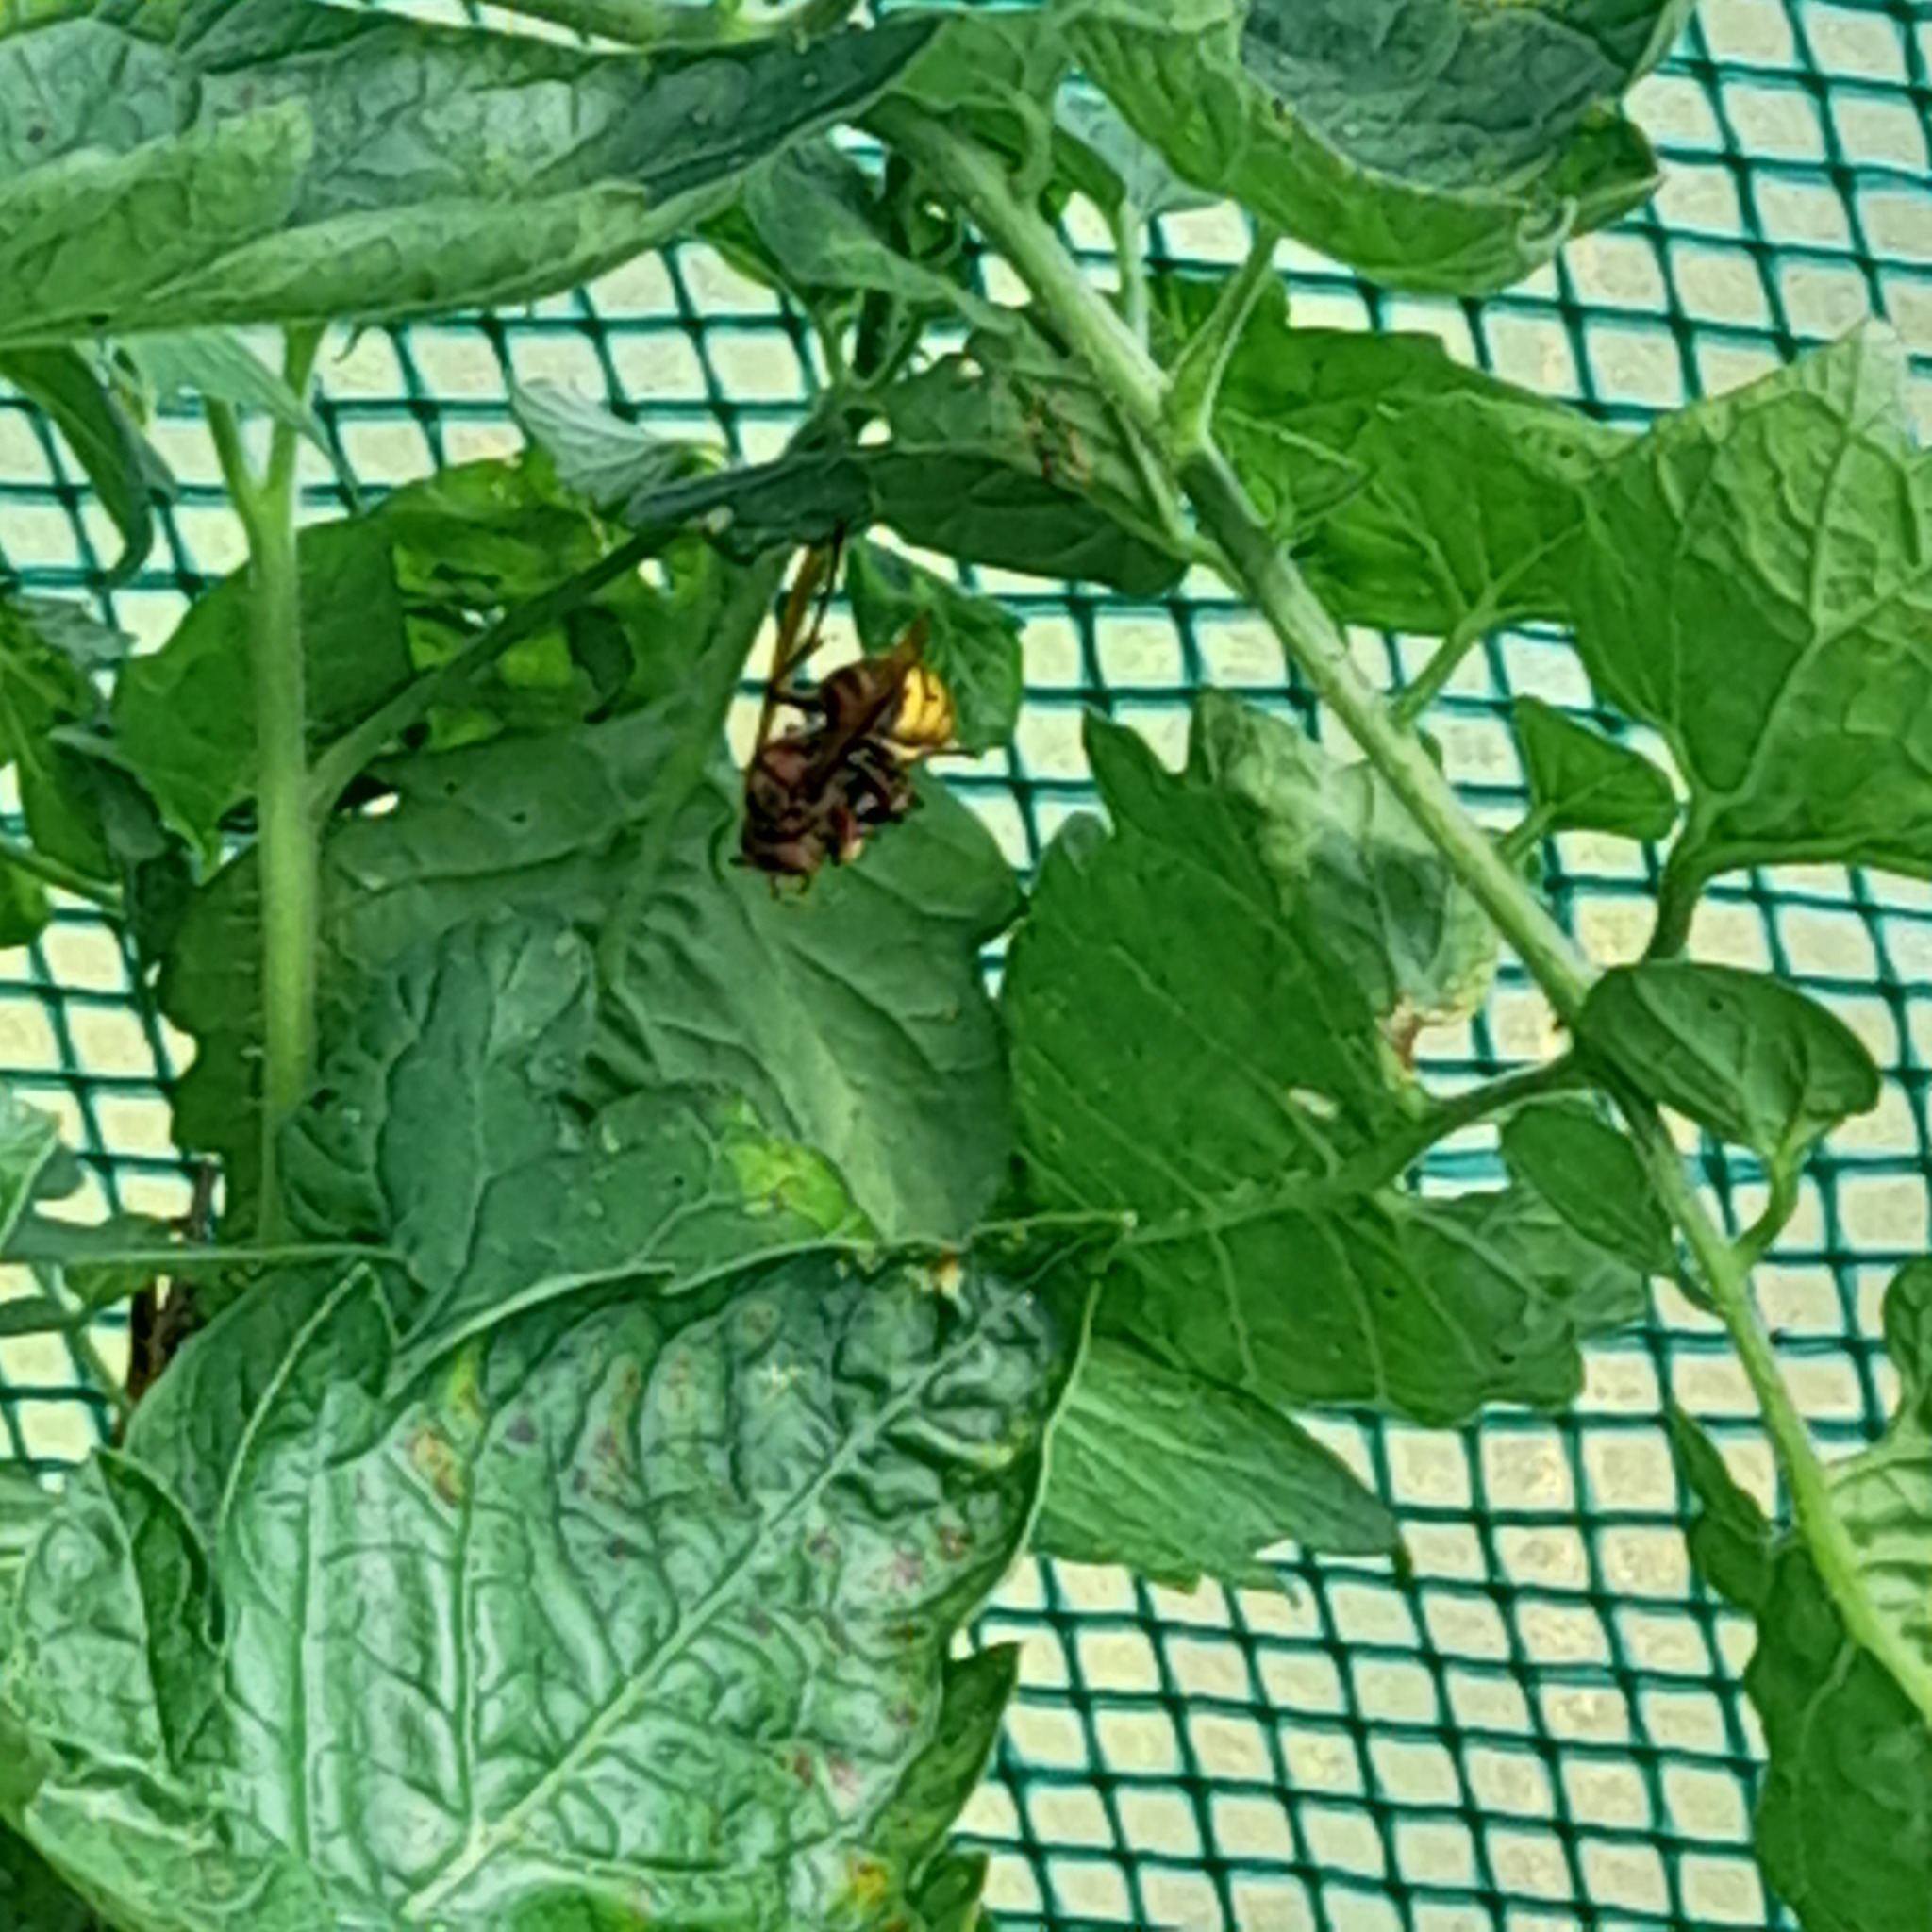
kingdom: Animalia
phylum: Arthropoda
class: Insecta
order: Hymenoptera
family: Vespidae
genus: Vespa
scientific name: Vespa crabro
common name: Hornet
